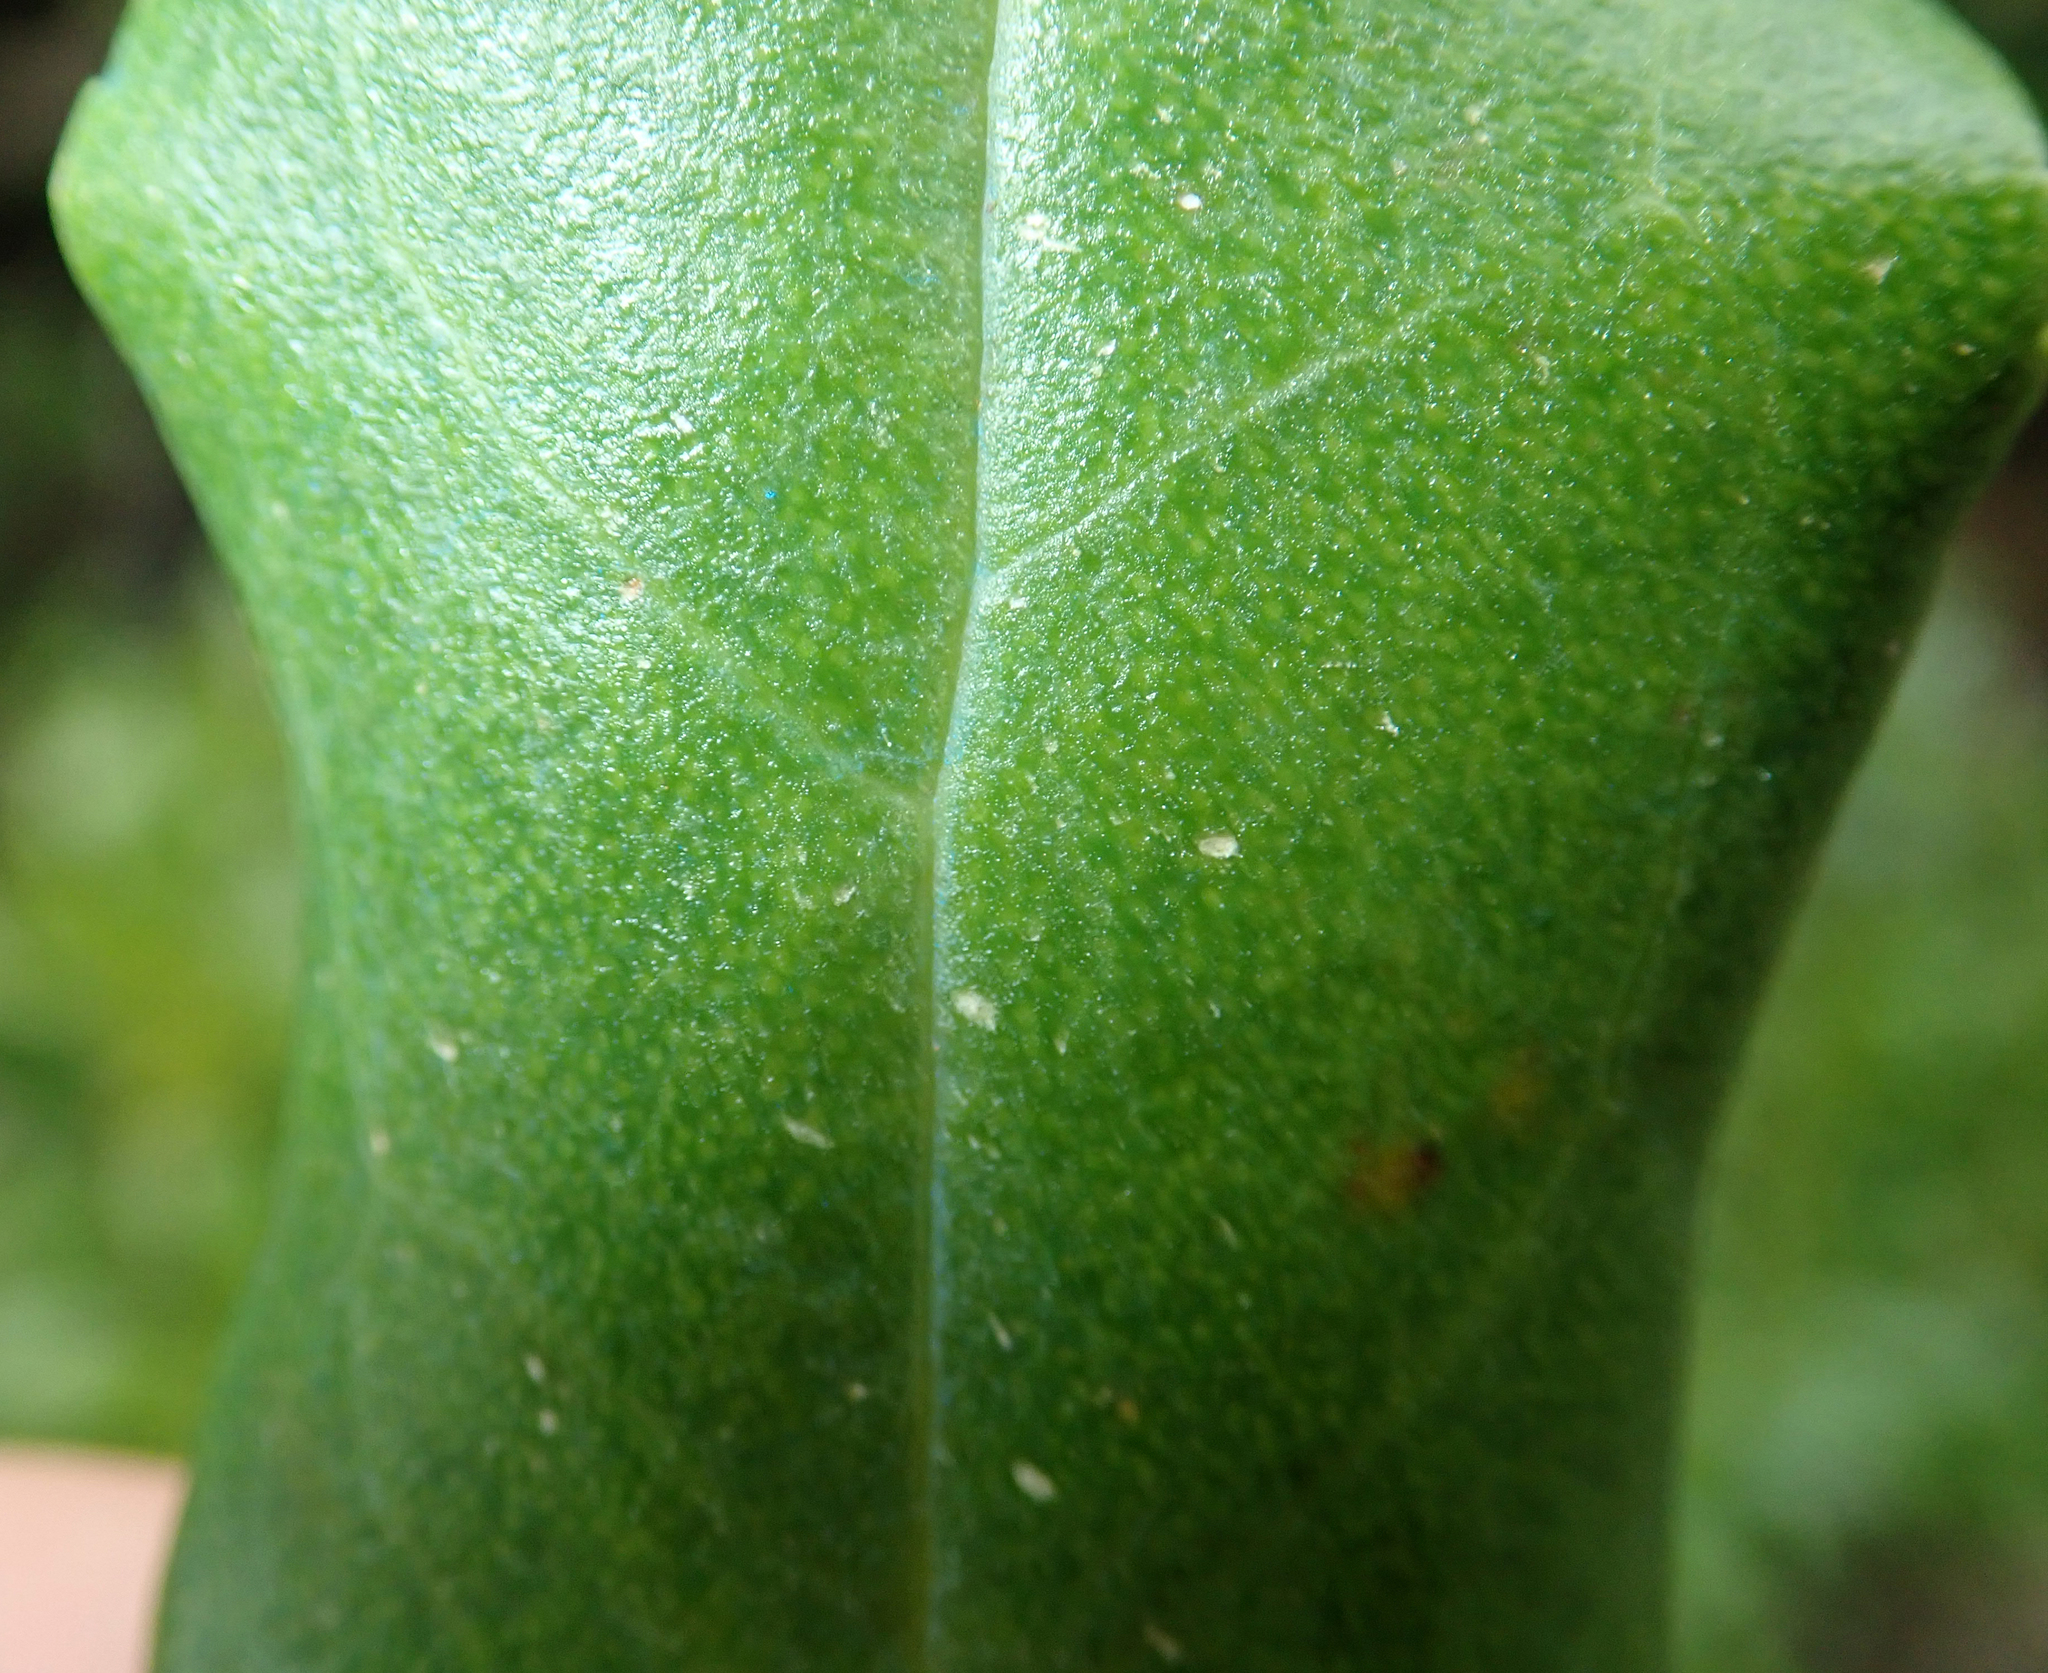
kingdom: Plantae
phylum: Tracheophyta
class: Magnoliopsida
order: Lamiales
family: Scrophulariaceae
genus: Myoporum
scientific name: Myoporum semotum
